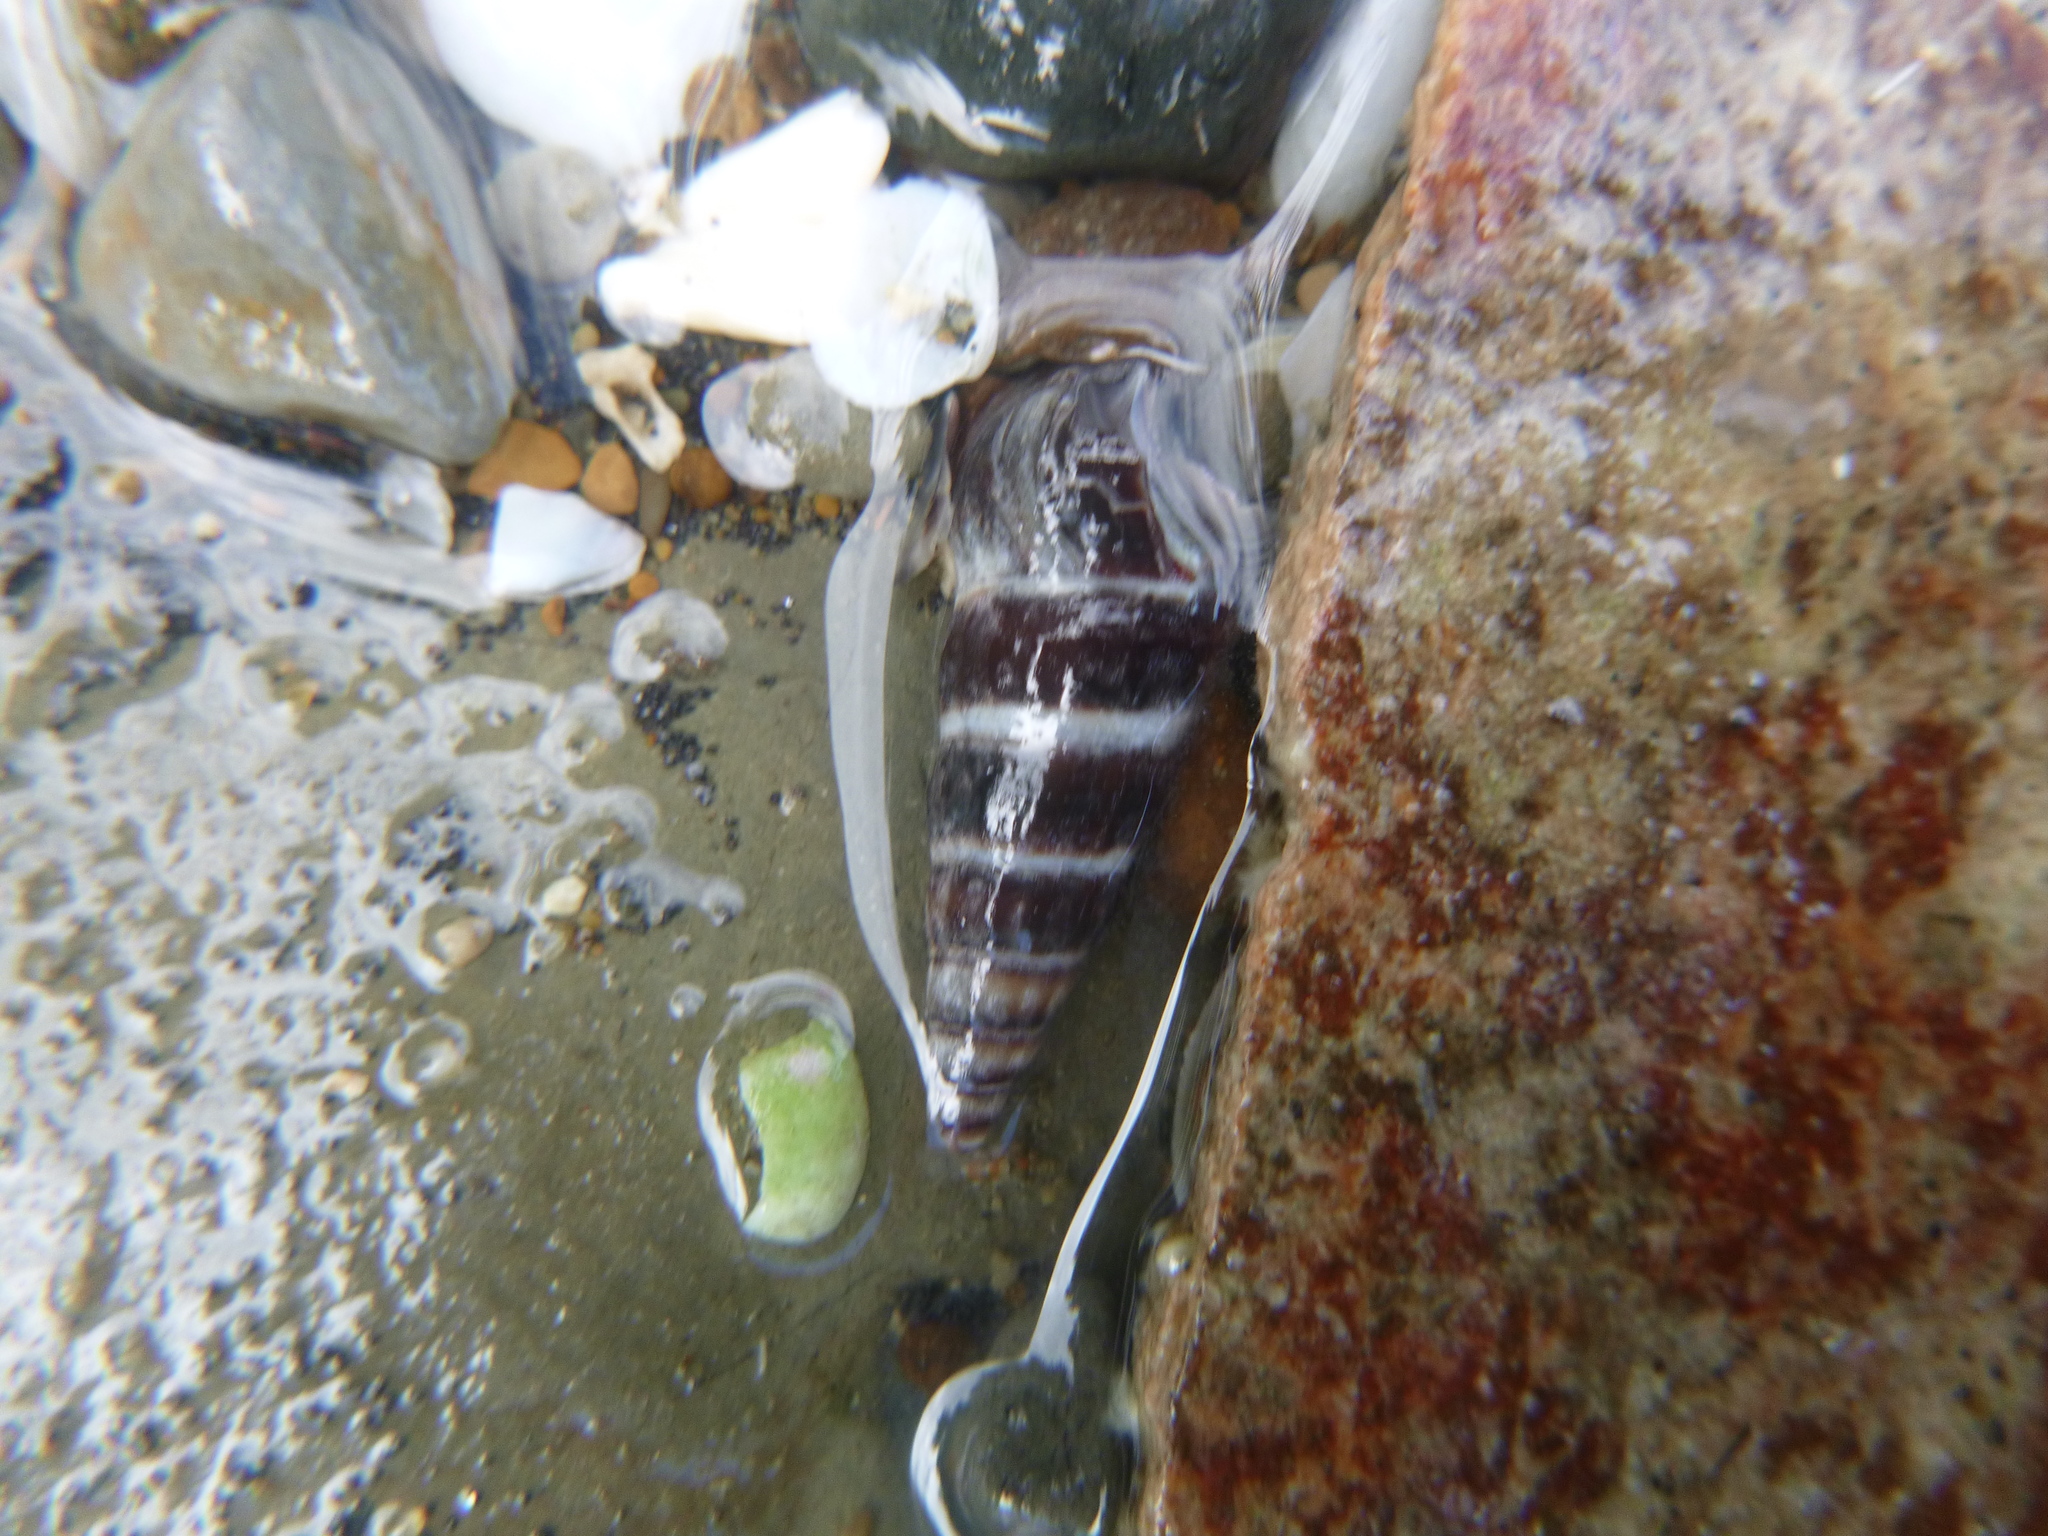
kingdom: Animalia
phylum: Mollusca
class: Gastropoda
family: Batillariidae
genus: Zeacumantus
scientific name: Zeacumantus lutulentus
